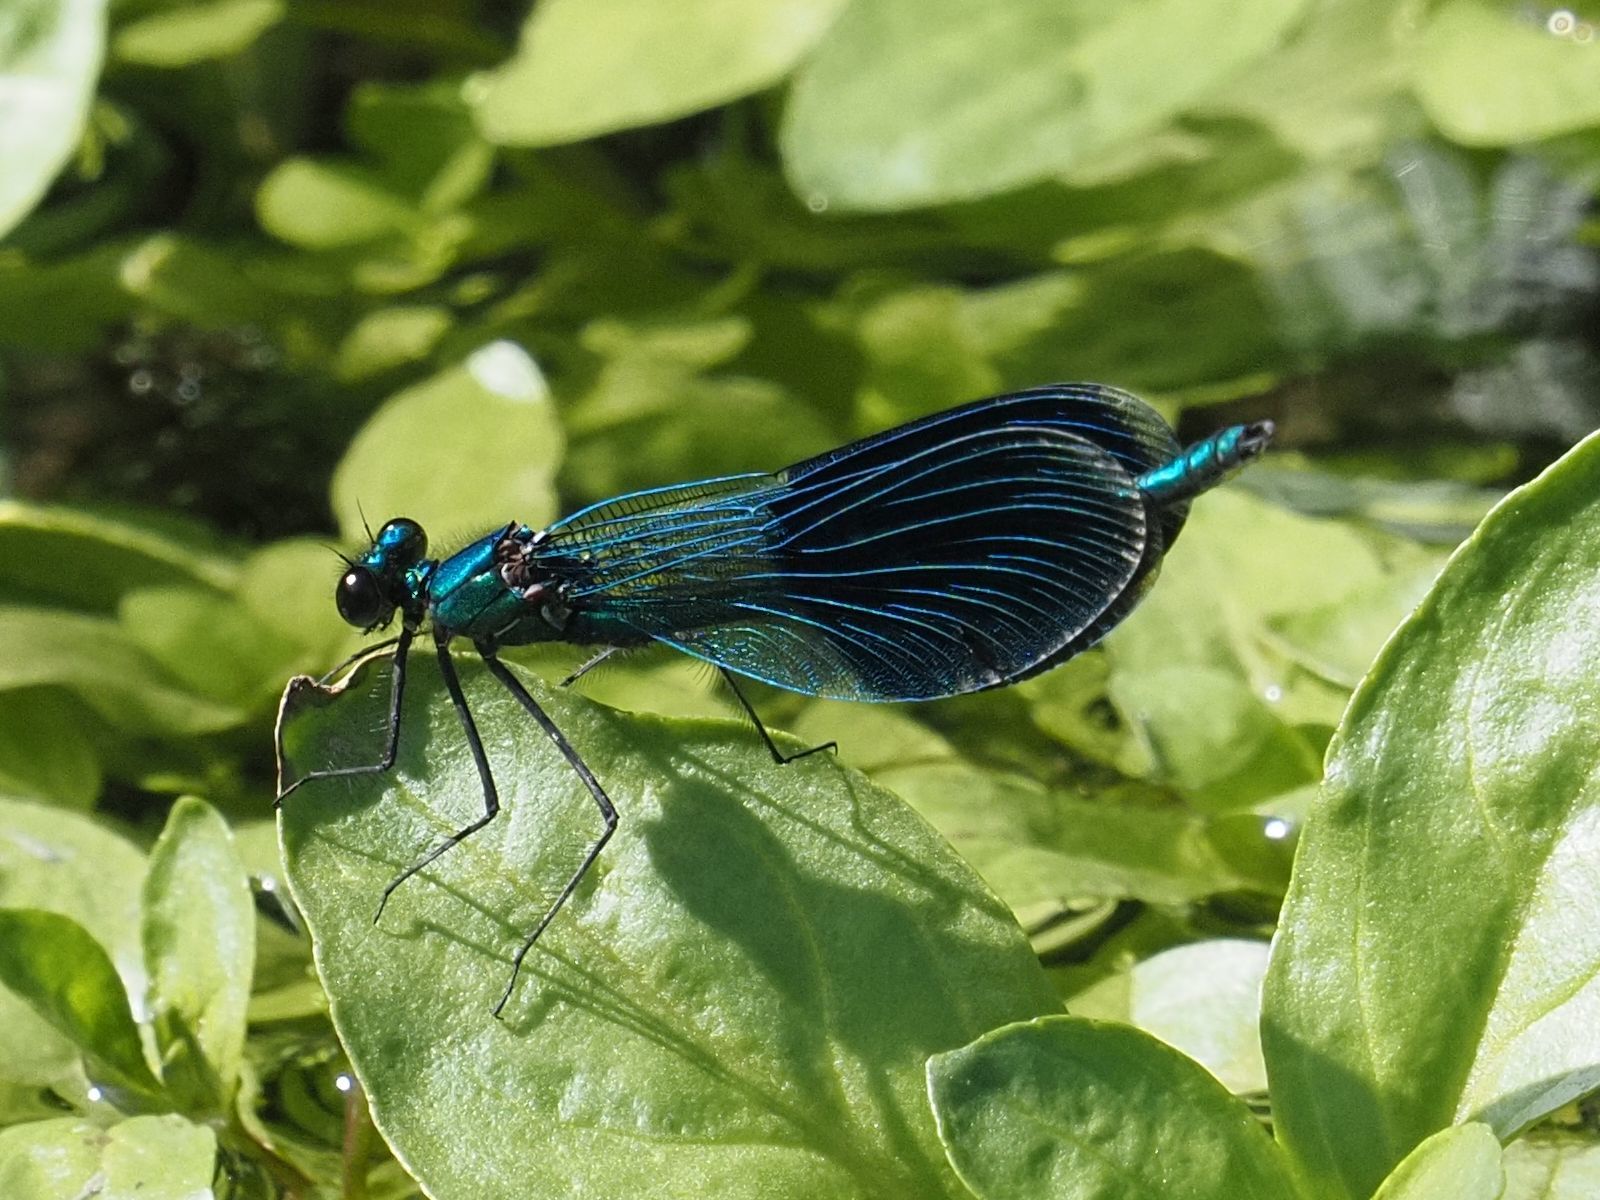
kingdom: Animalia
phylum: Arthropoda
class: Insecta
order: Odonata
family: Calopterygidae
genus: Calopteryx
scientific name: Calopteryx splendens
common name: Banded demoiselle
